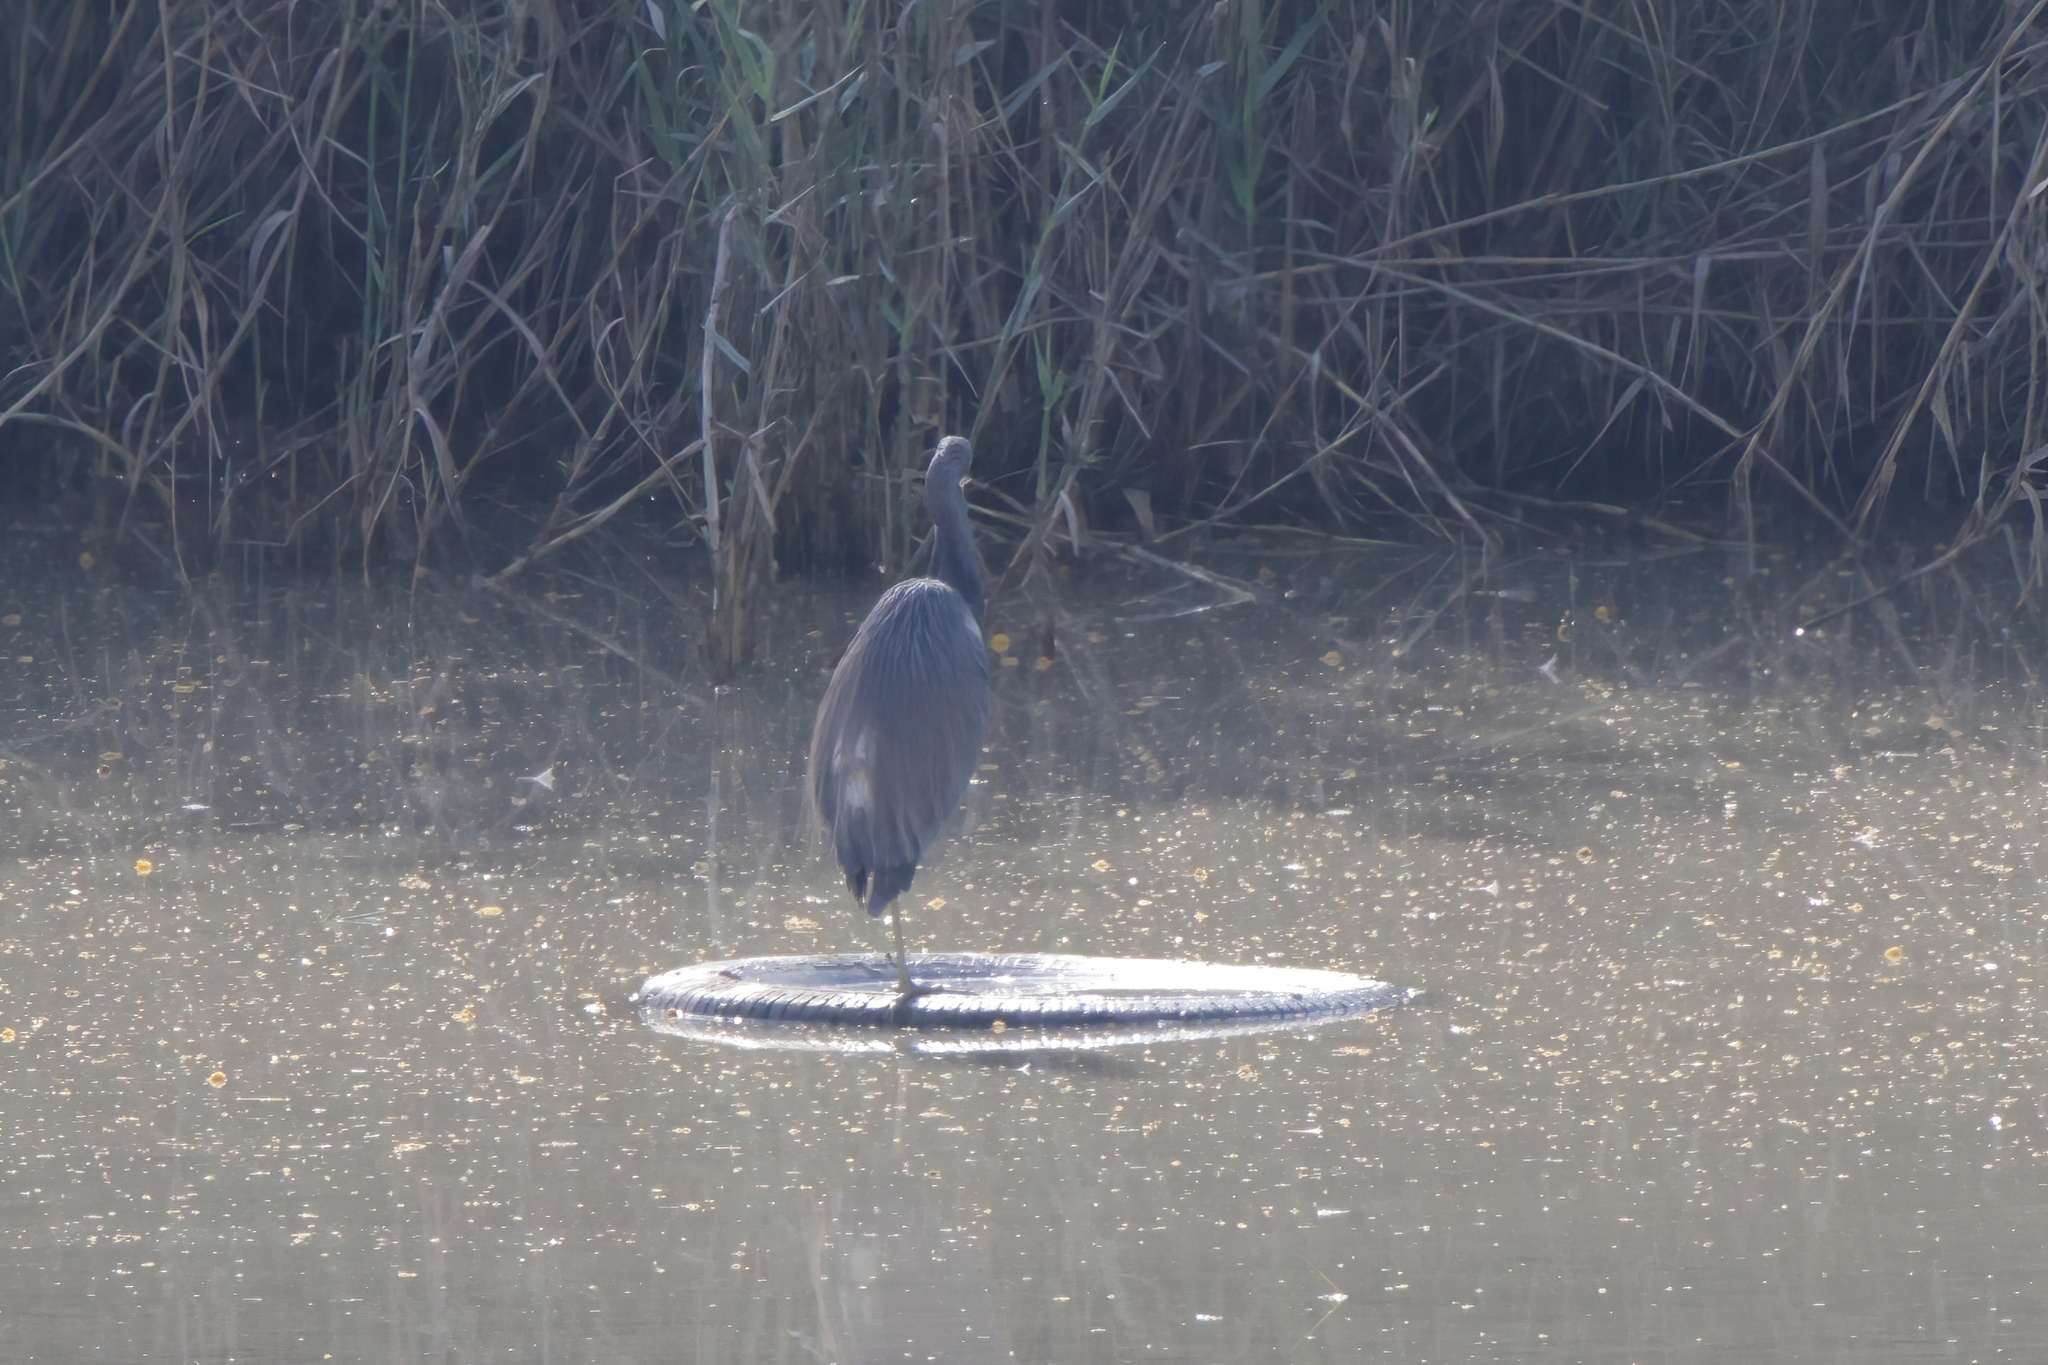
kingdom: Animalia
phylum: Chordata
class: Aves
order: Pelecaniformes
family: Ardeidae
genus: Egretta
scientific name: Egretta tricolor
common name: Tricolored heron
